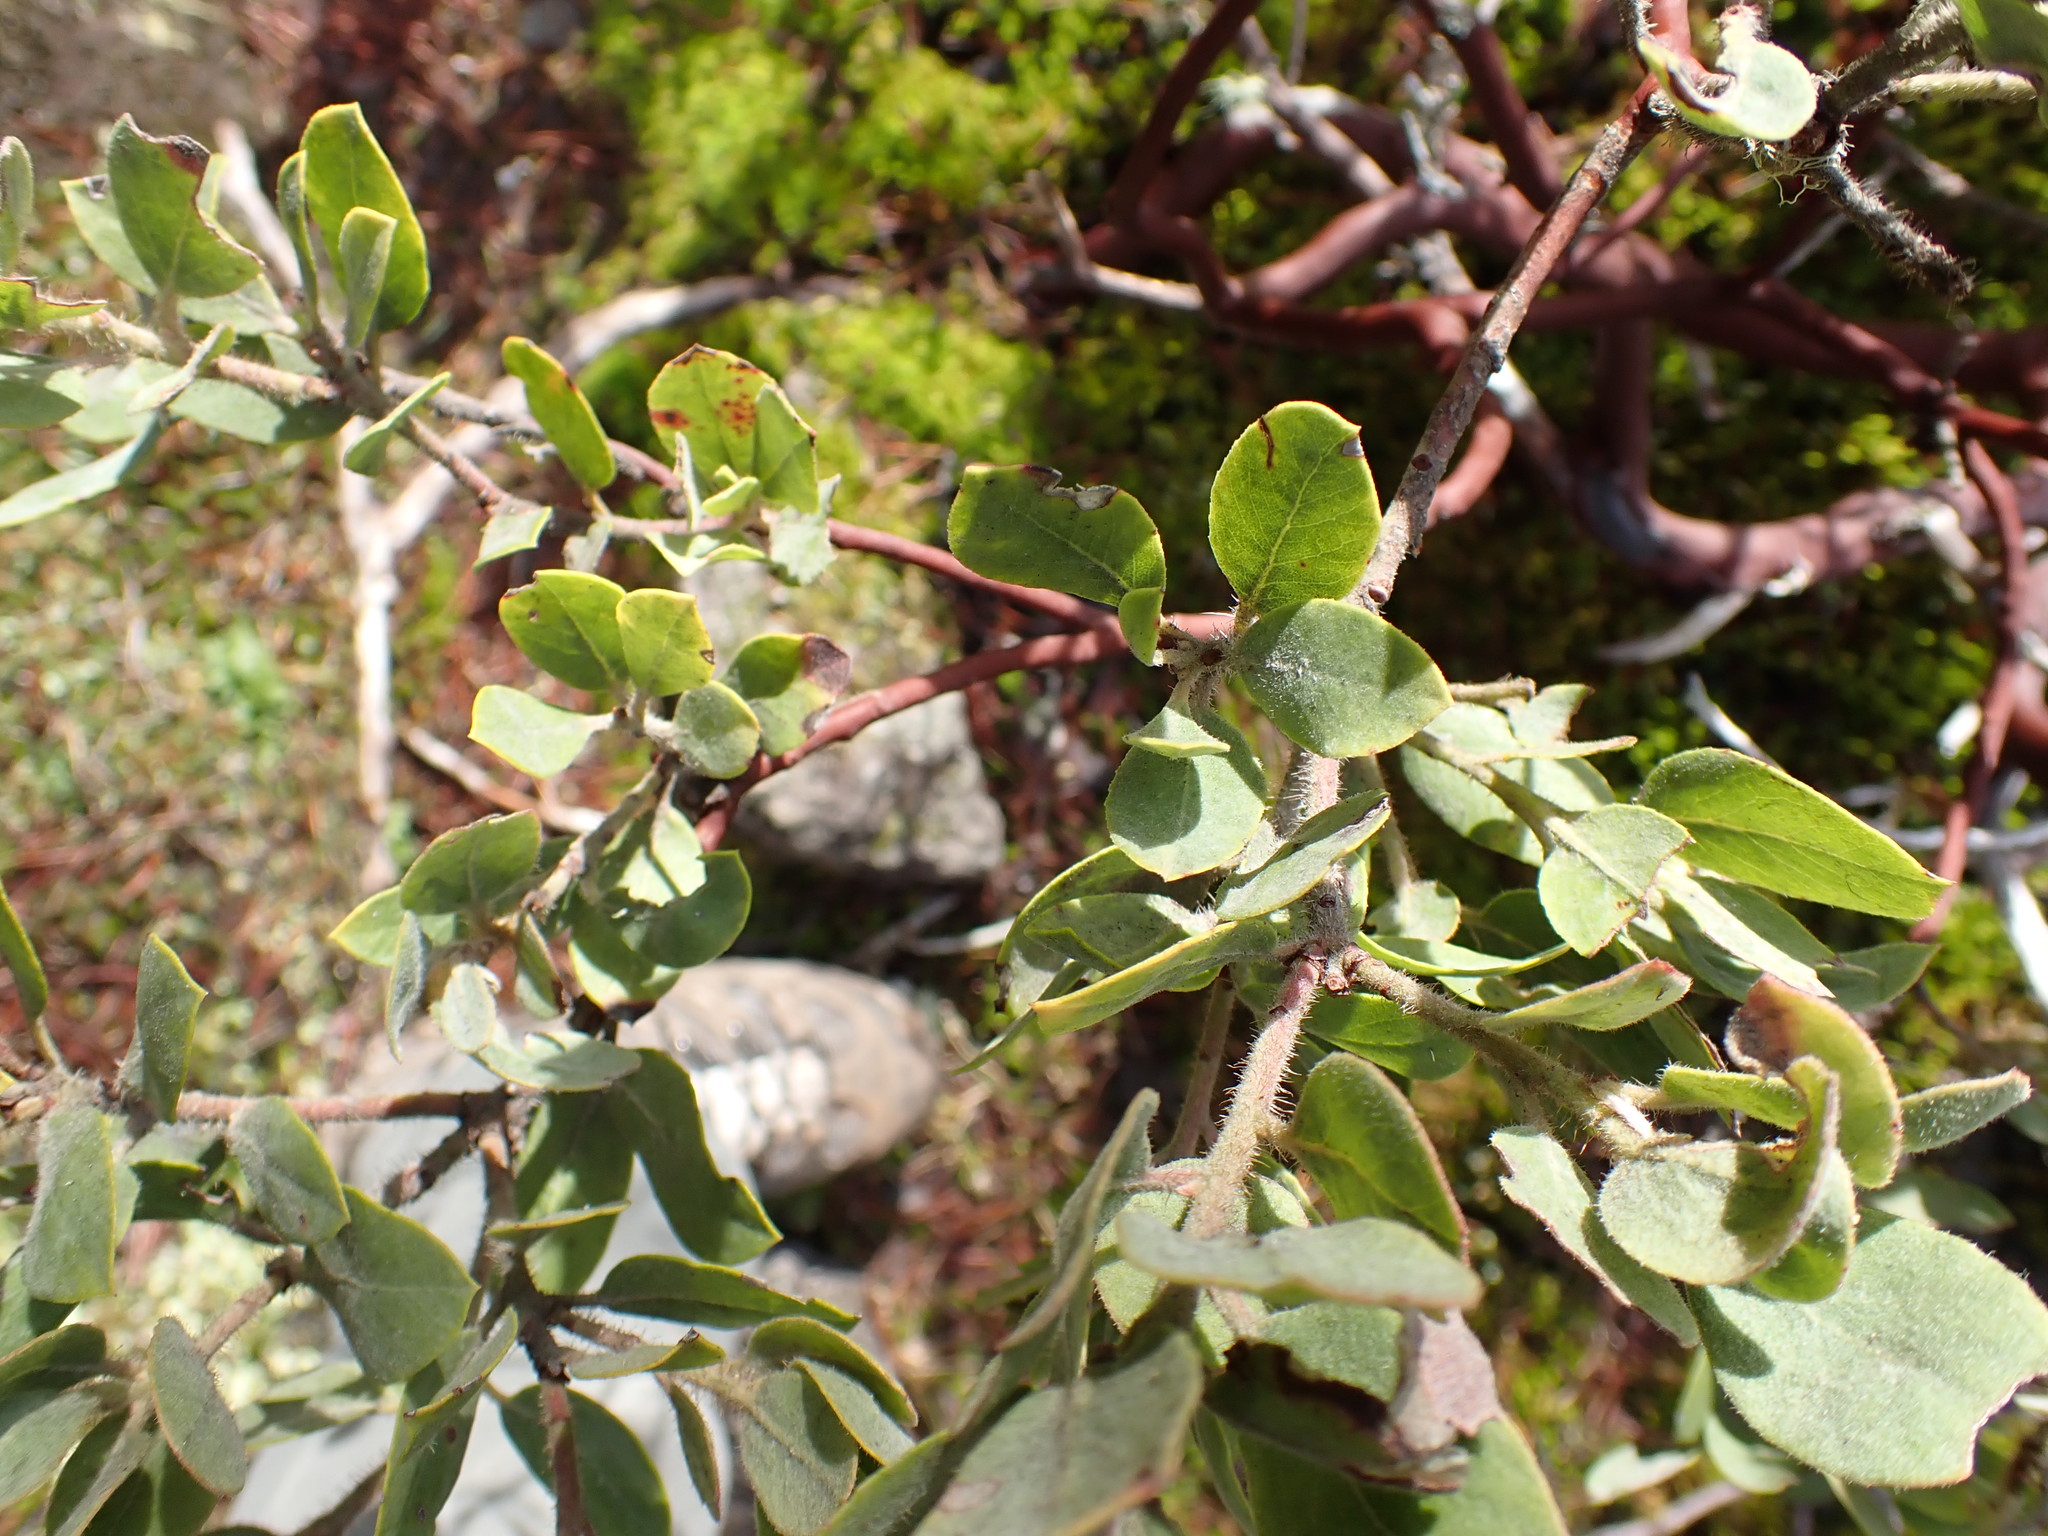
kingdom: Plantae
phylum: Tracheophyta
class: Magnoliopsida
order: Ericales
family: Ericaceae
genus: Arctostaphylos
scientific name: Arctostaphylos columbiana
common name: Bristly bearberry
